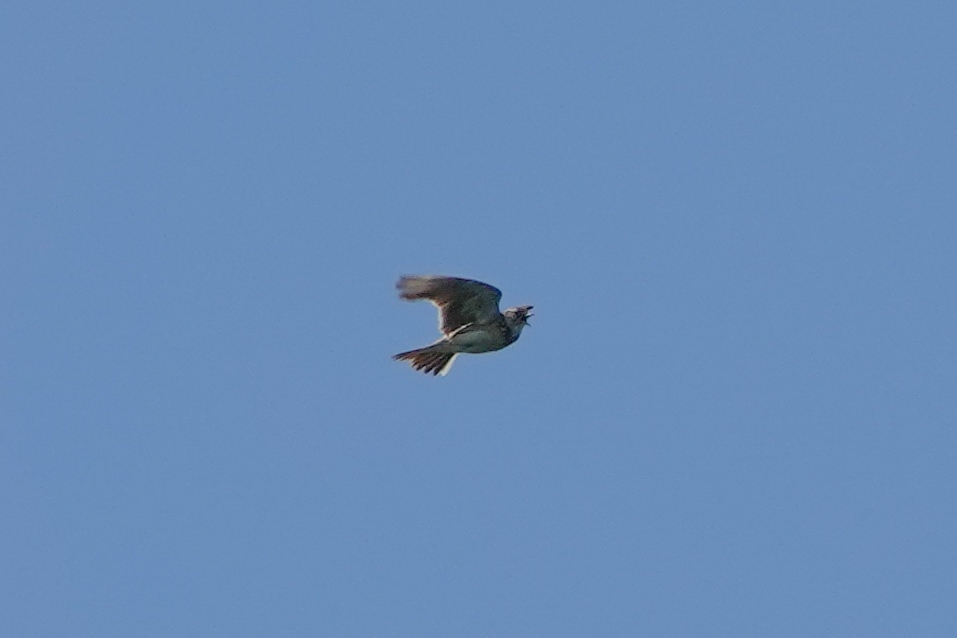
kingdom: Animalia
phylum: Chordata
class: Aves
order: Passeriformes
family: Alaudidae
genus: Alauda
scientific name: Alauda arvensis
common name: Eurasian skylark
